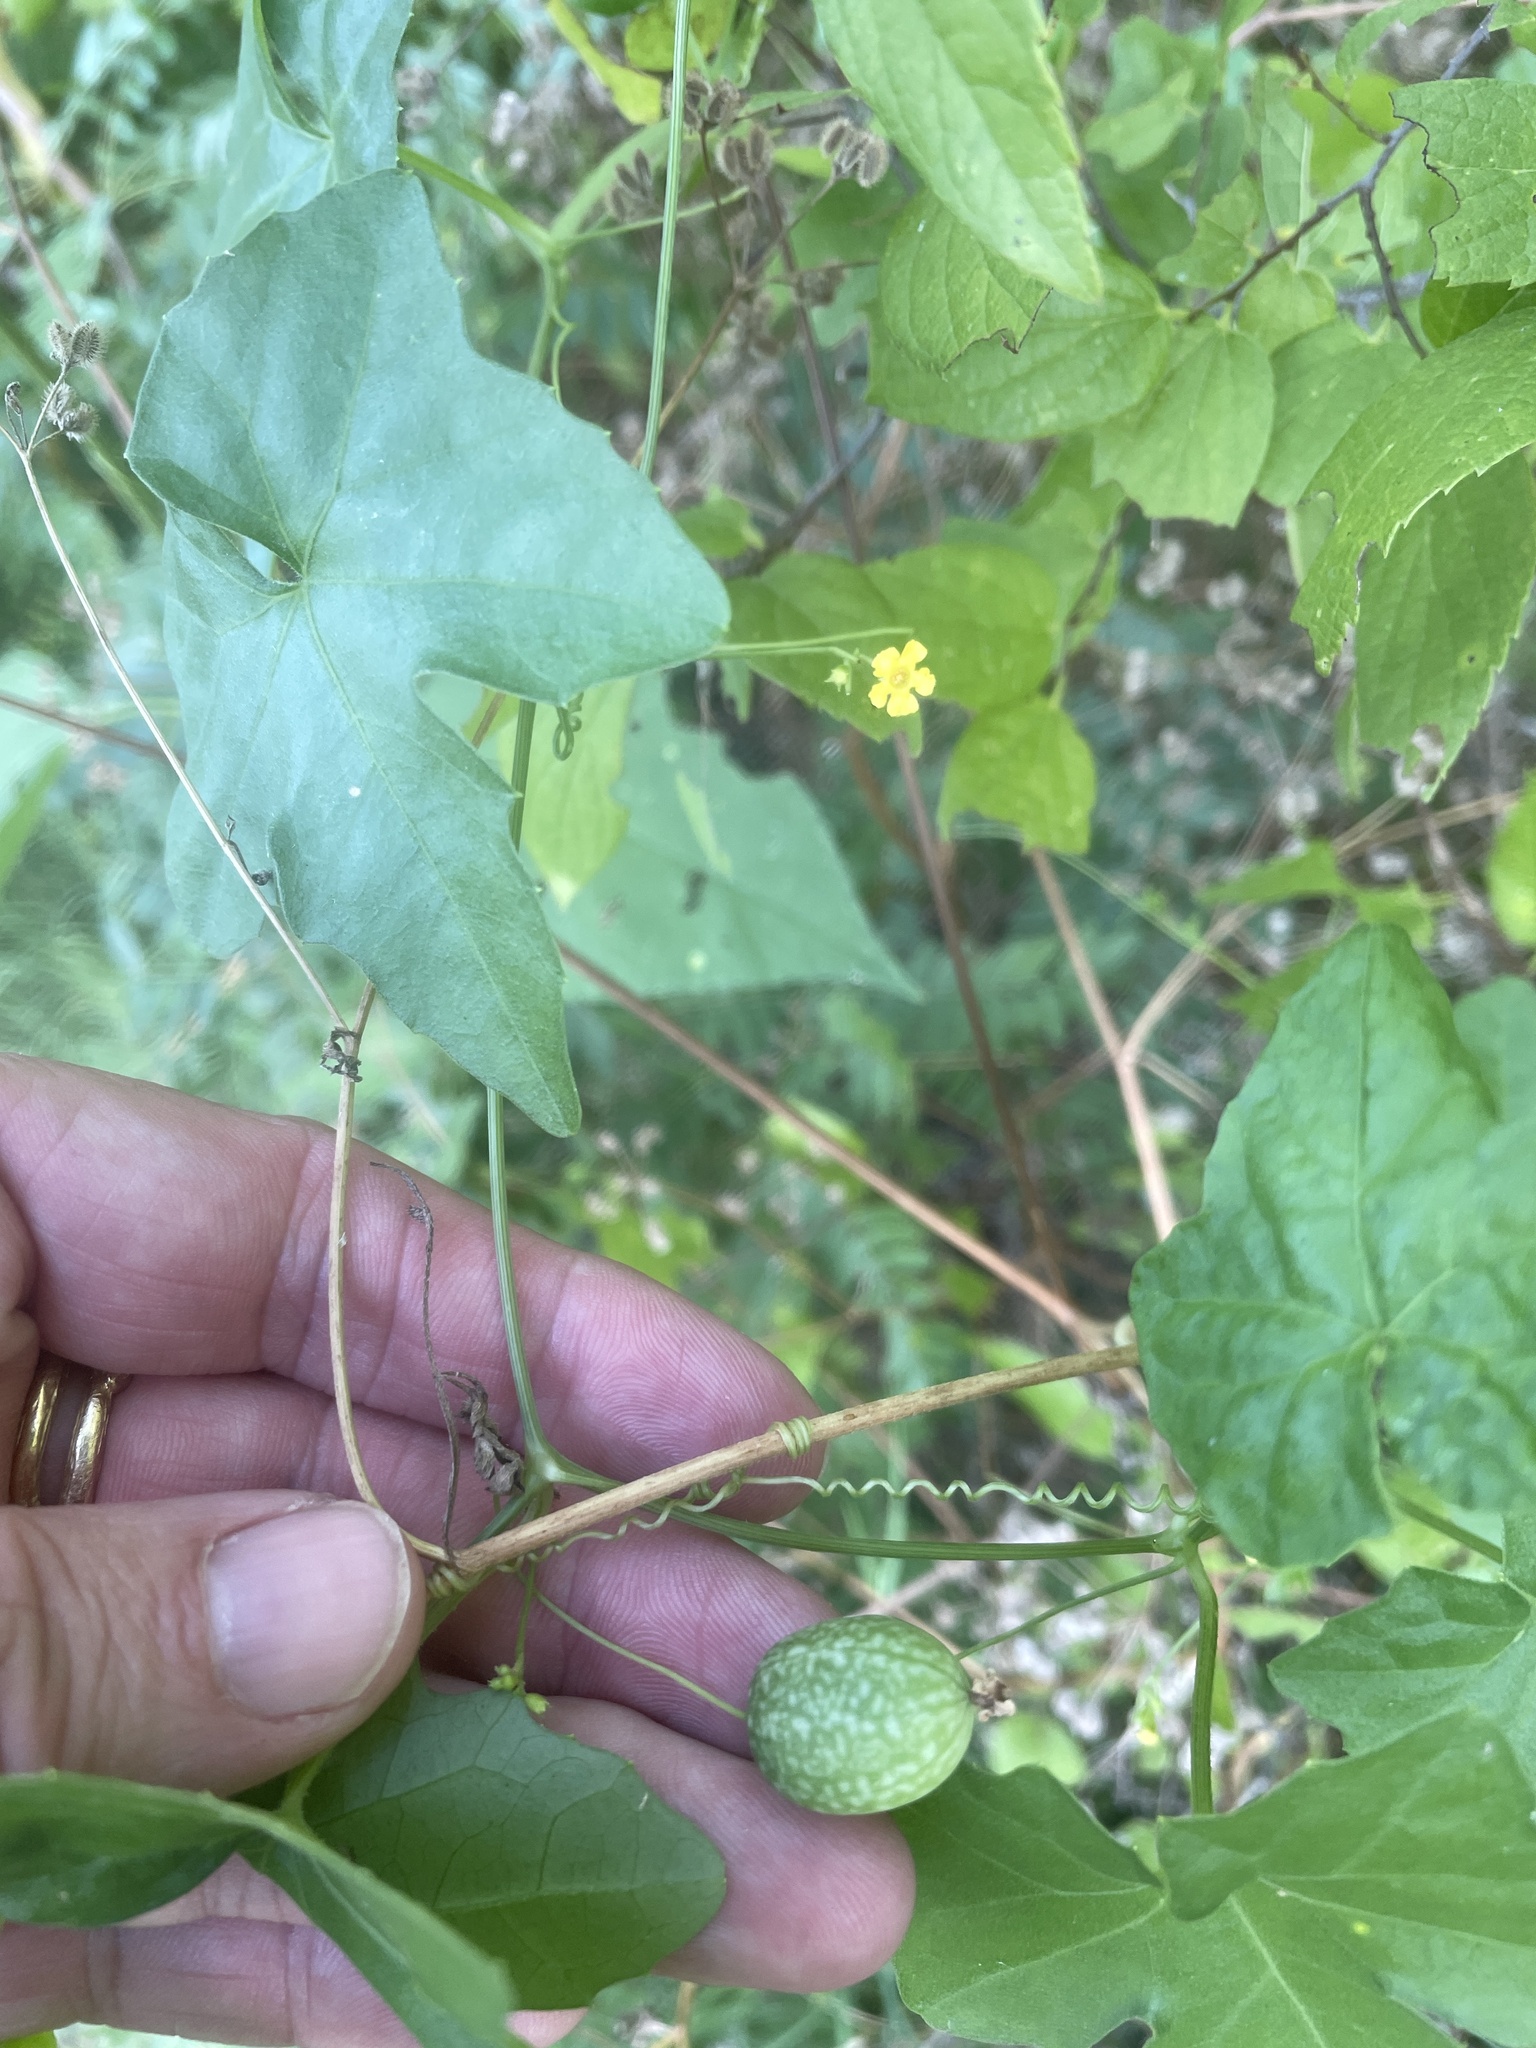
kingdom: Plantae
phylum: Tracheophyta
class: Magnoliopsida
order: Cucurbitales
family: Cucurbitaceae
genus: Melothria
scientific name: Melothria pendula
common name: Creeping-cucumber
